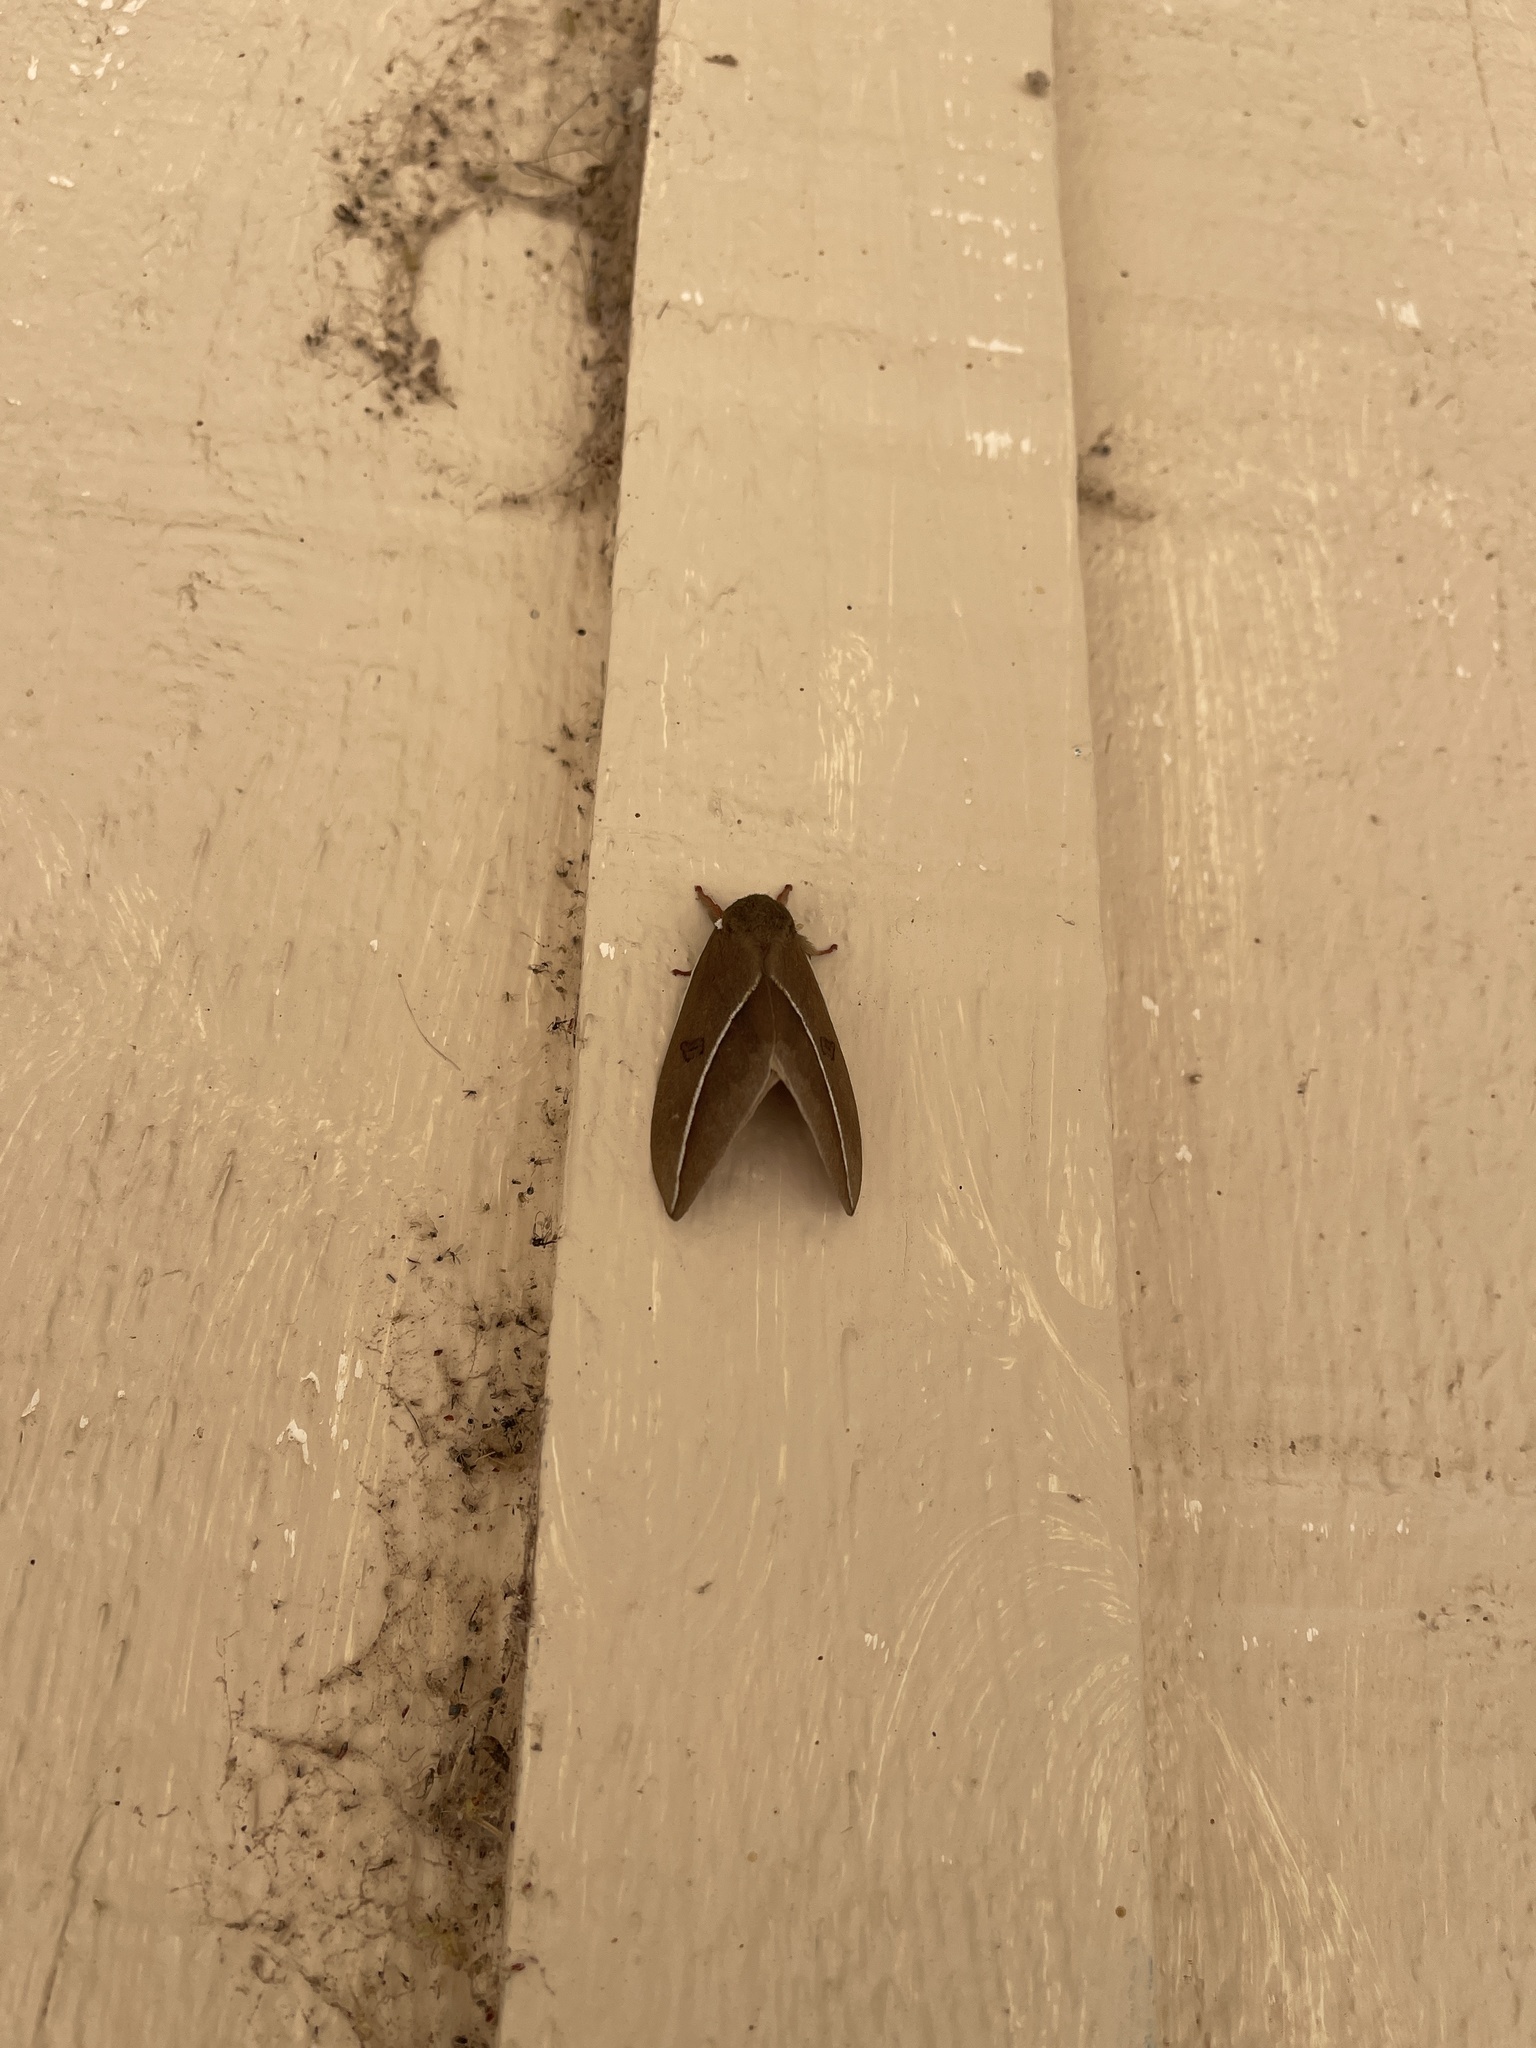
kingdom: Animalia
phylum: Arthropoda
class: Insecta
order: Lepidoptera
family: Saturniidae
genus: Automeris
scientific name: Automeris zephyria
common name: Zephyr eyed silkmoth
